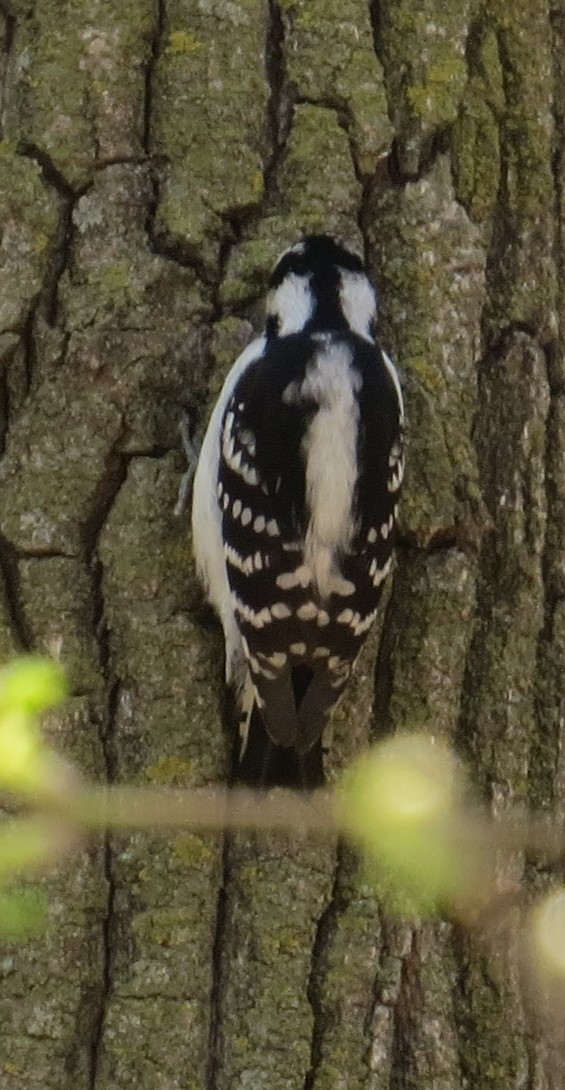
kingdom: Animalia
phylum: Chordata
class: Aves
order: Piciformes
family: Picidae
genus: Dryobates
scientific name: Dryobates pubescens
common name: Downy woodpecker
